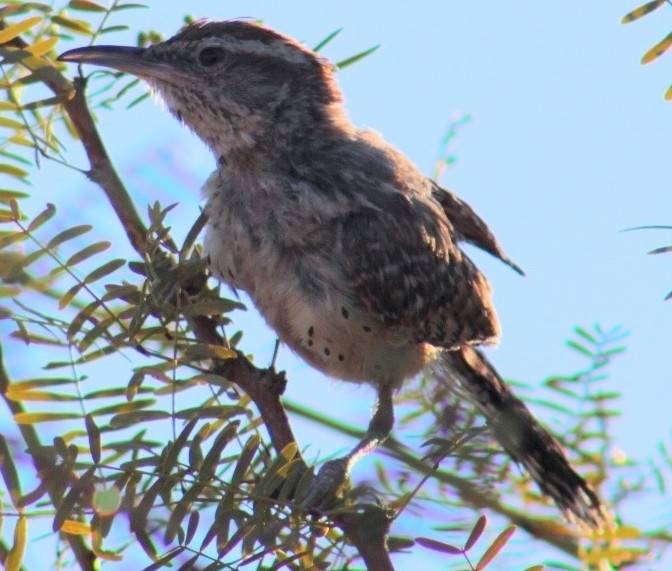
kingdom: Animalia
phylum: Chordata
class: Aves
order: Passeriformes
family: Troglodytidae
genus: Campylorhynchus
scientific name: Campylorhynchus brunneicapillus
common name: Cactus wren
